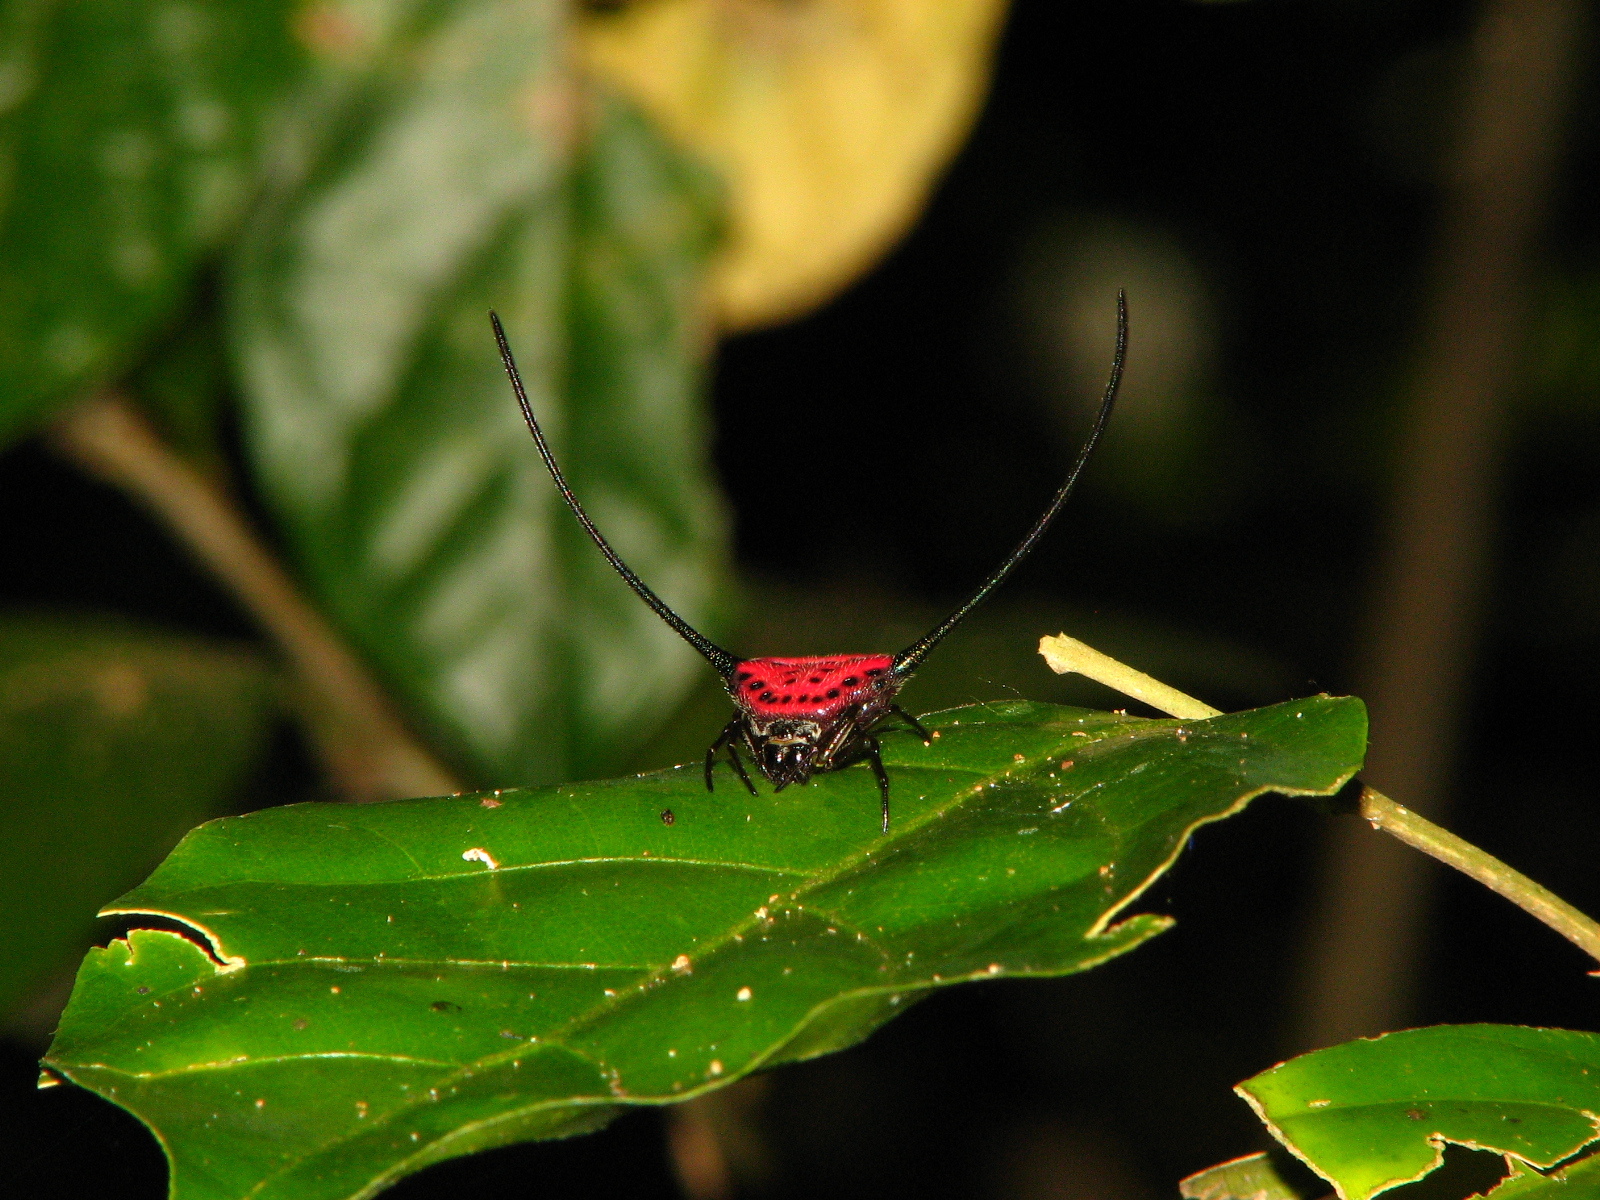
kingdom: Animalia
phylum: Arthropoda
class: Arachnida
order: Araneae
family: Araneidae
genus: Macracantha
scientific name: Macracantha arcuata
